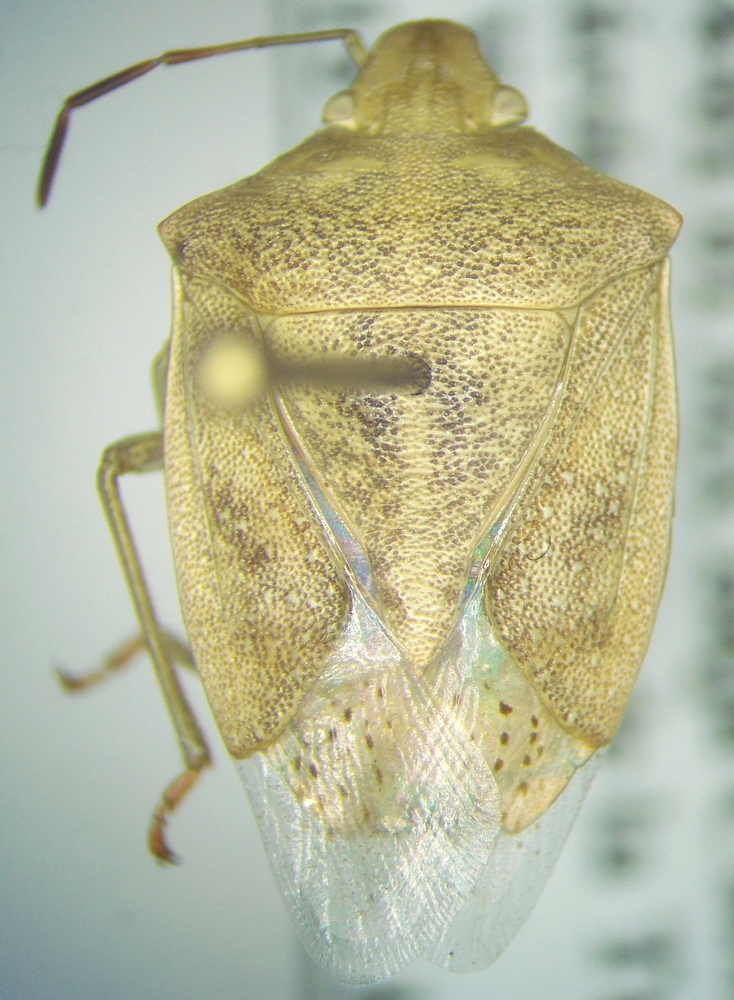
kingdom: Animalia
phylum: Arthropoda
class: Insecta
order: Hemiptera
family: Pentatomidae
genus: Thyanta
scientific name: Thyanta custator
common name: Stink bug
